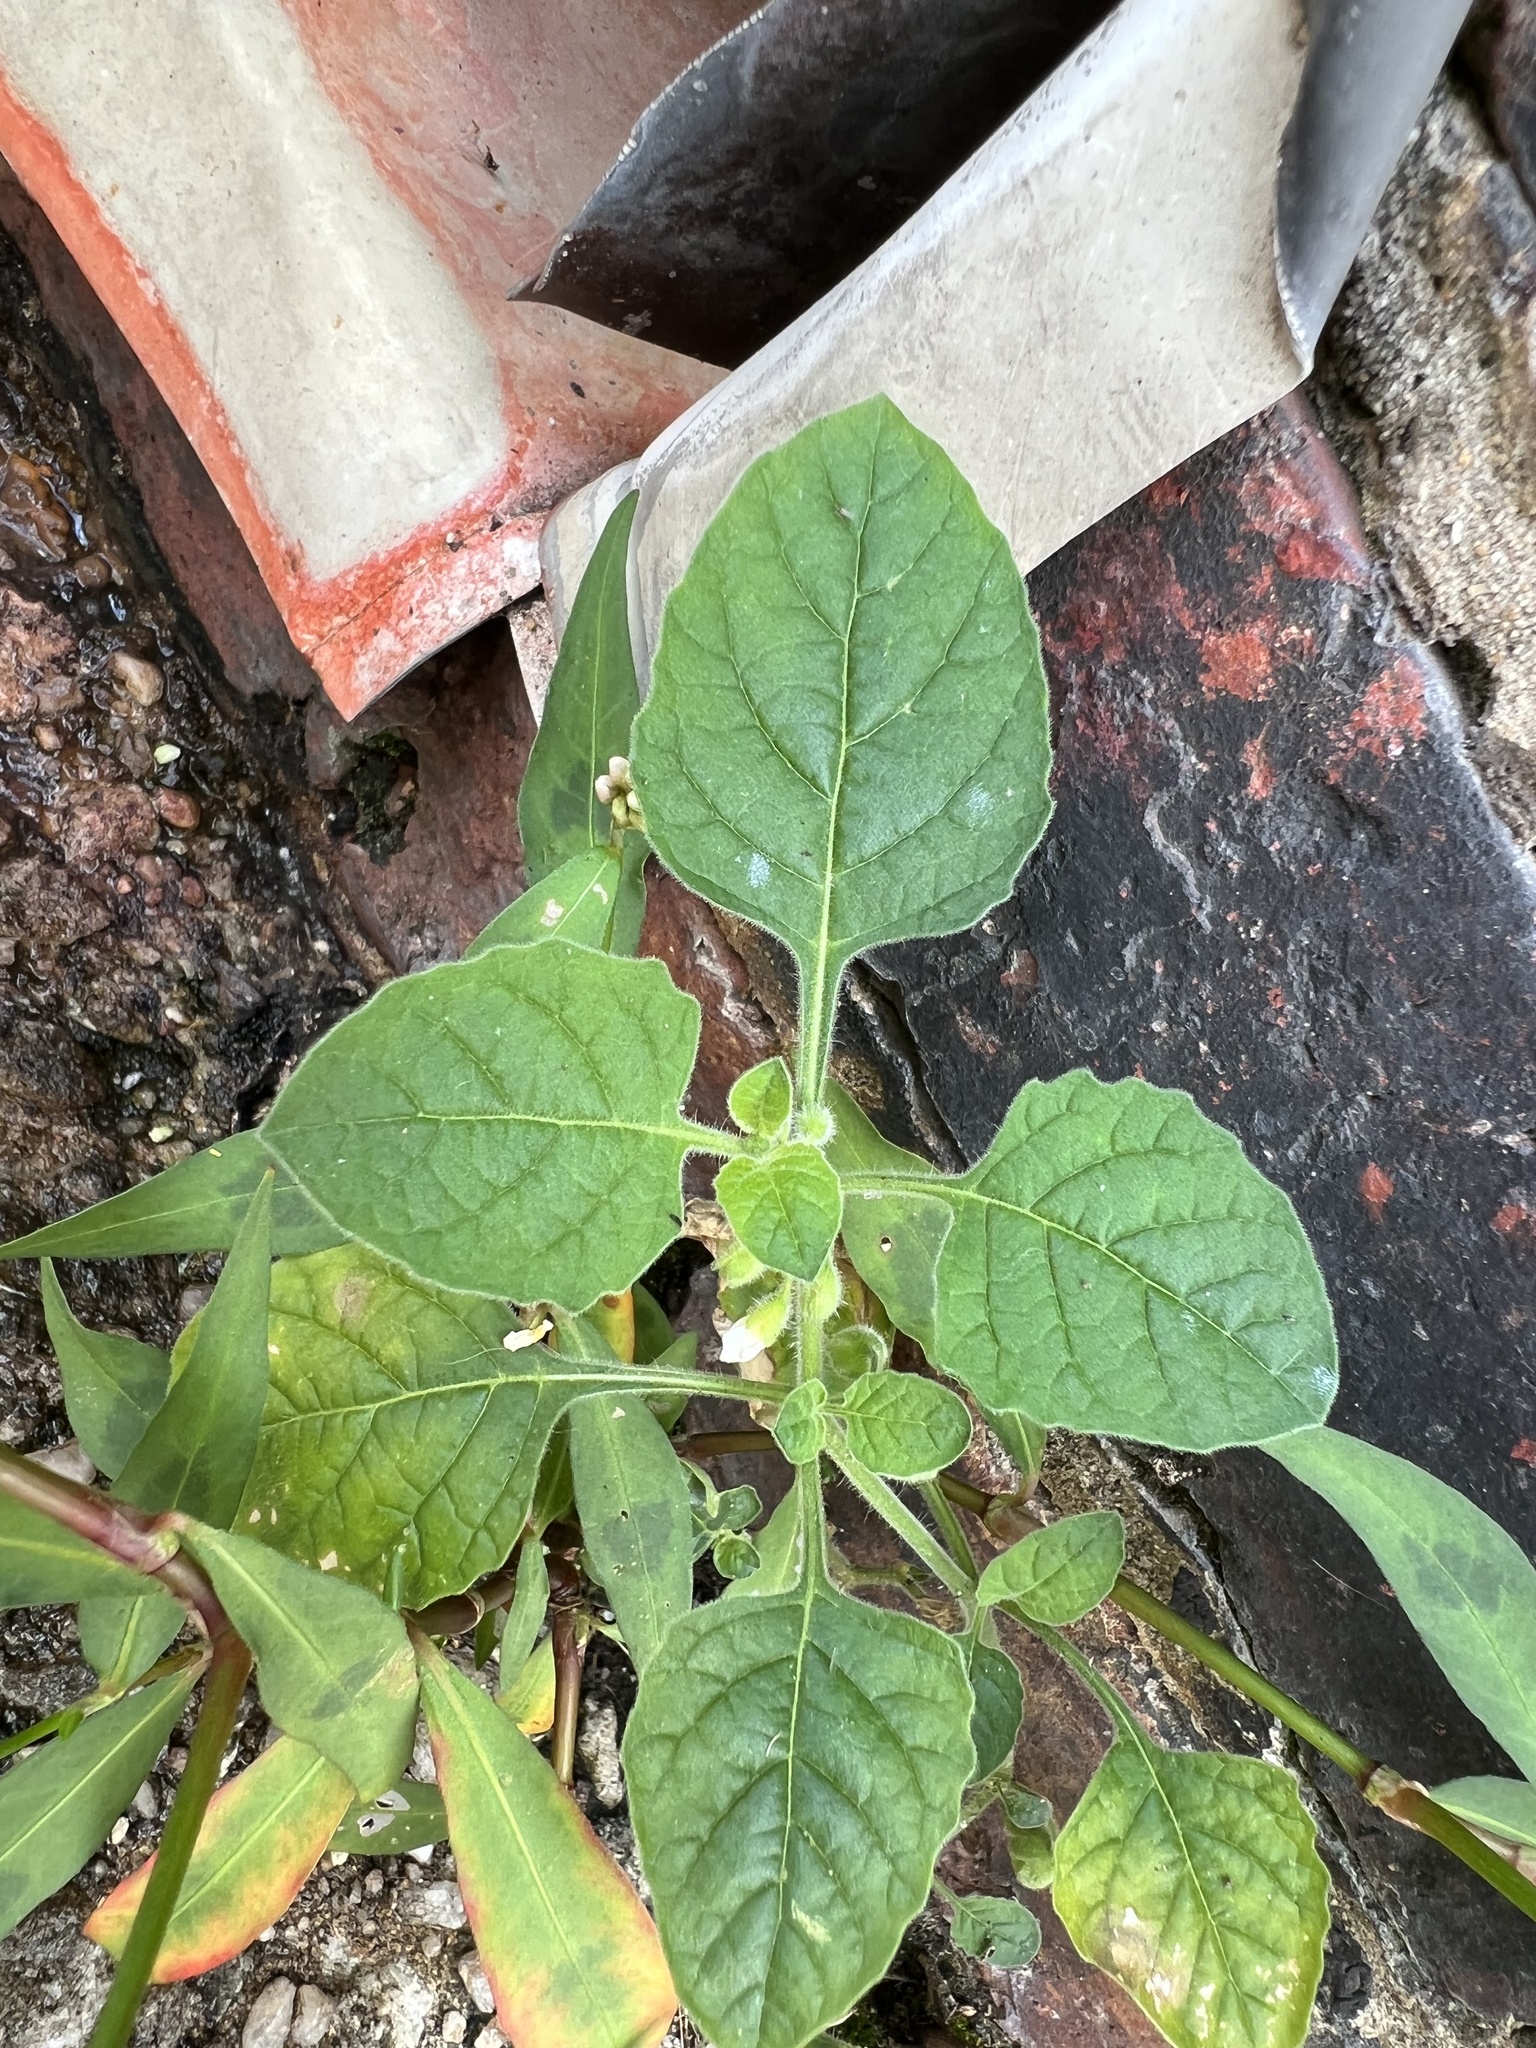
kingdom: Plantae
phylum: Tracheophyta
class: Magnoliopsida
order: Solanales
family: Solanaceae
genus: Solanum
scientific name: Solanum sarrachoides
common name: Leafy-fruited nightshade
